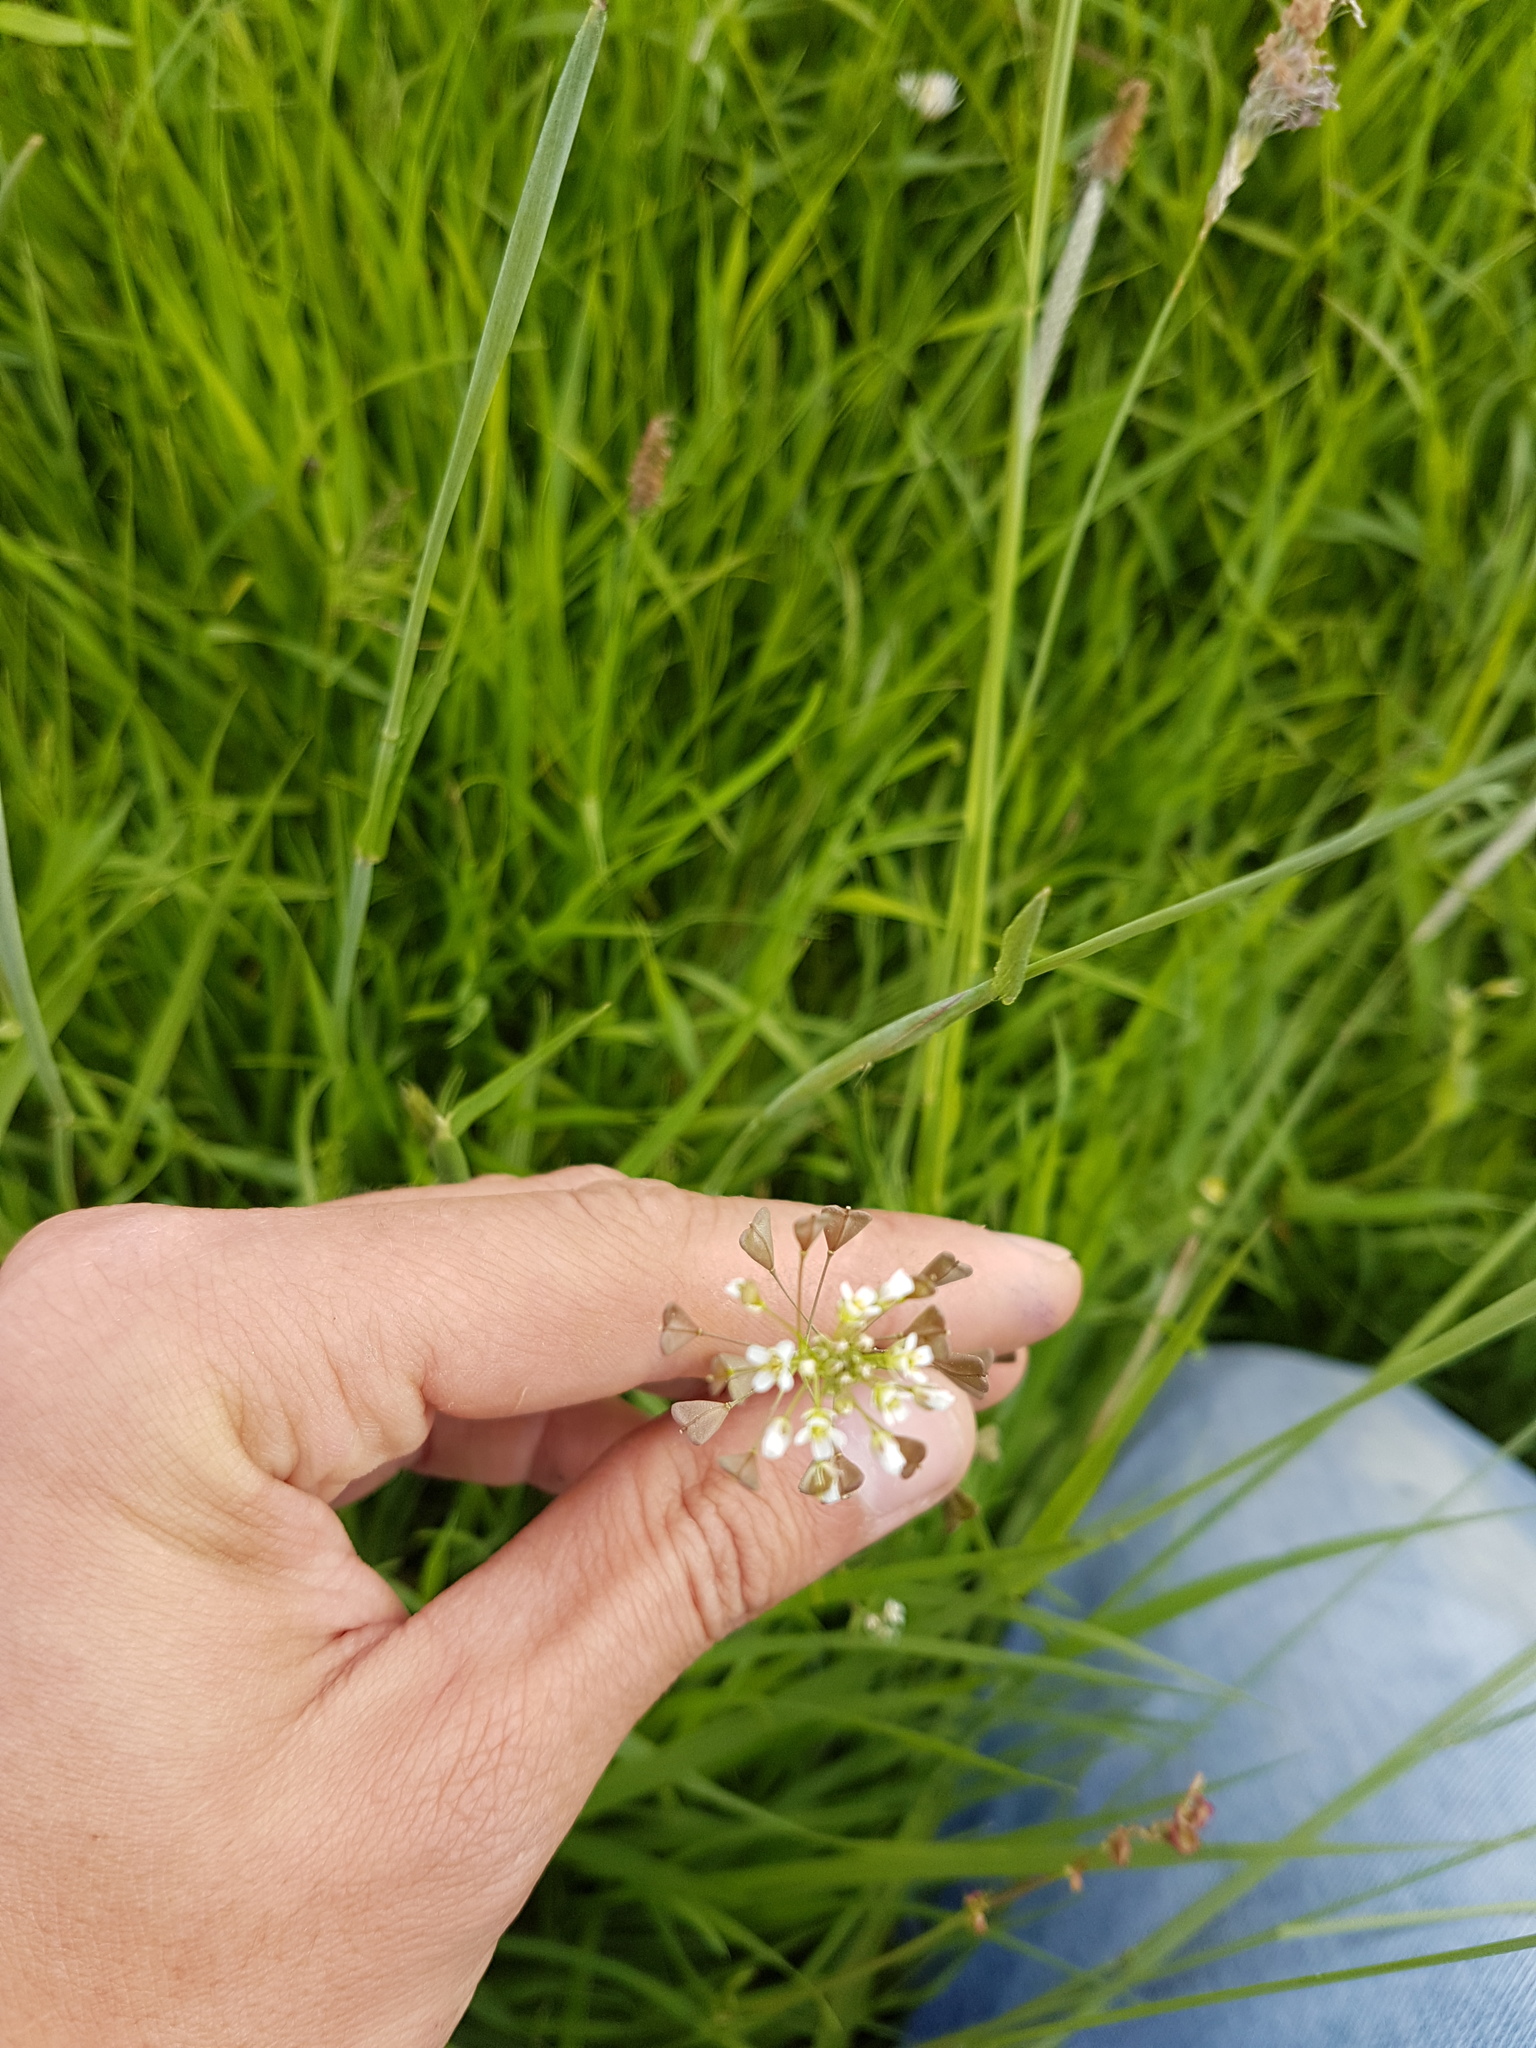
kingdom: Plantae
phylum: Tracheophyta
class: Magnoliopsida
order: Brassicales
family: Brassicaceae
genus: Capsella
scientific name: Capsella bursa-pastoris
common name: Shepherd's purse
